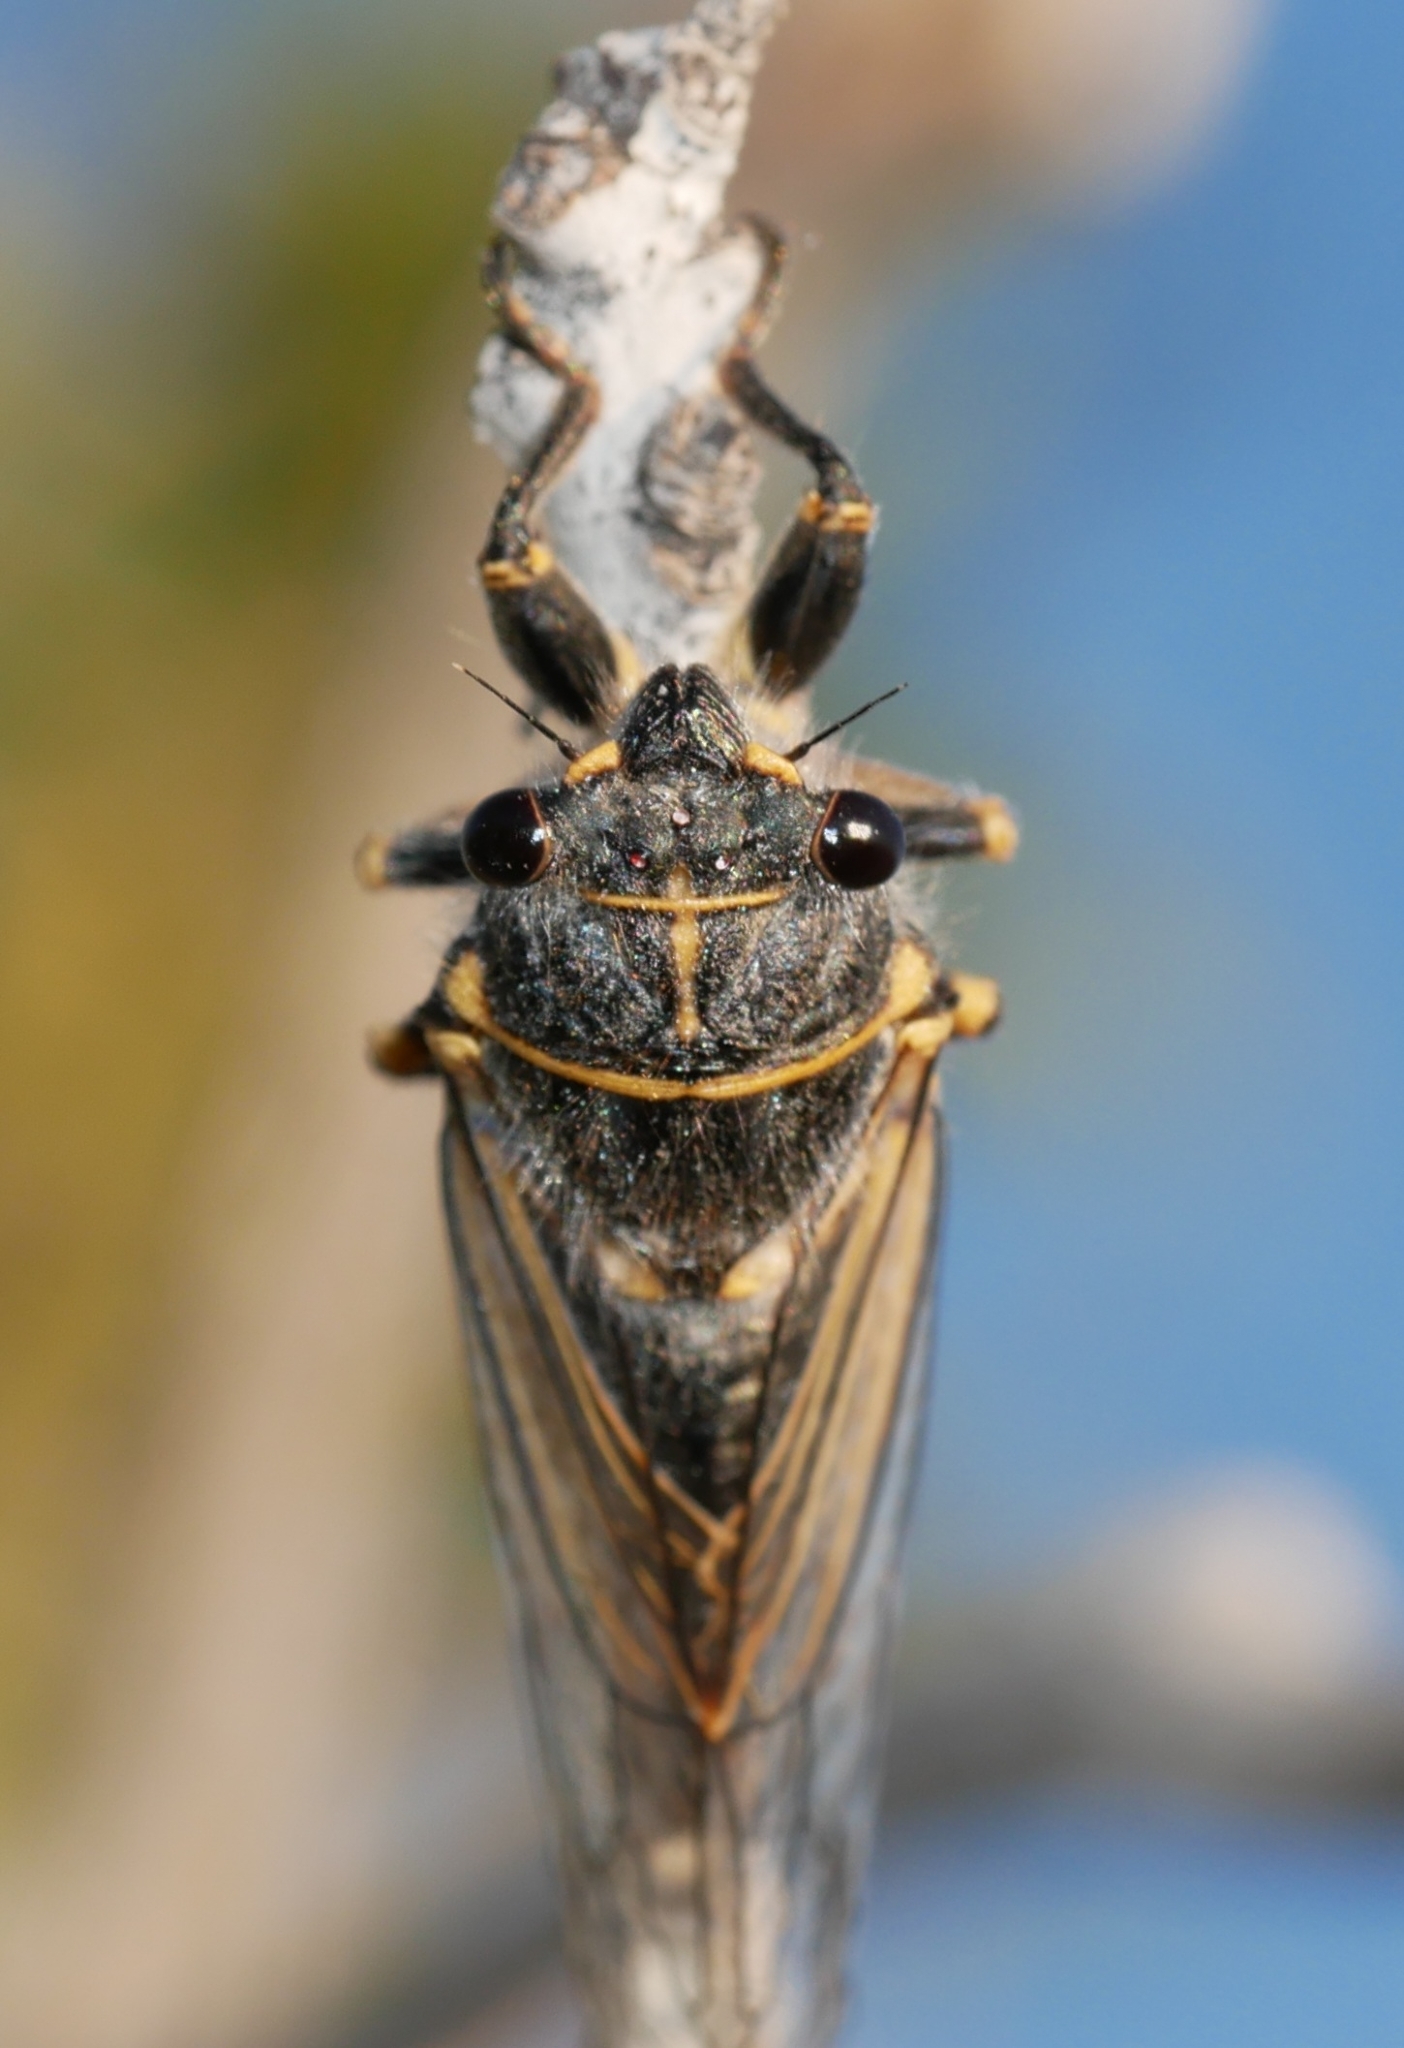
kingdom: Animalia
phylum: Arthropoda
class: Insecta
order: Hemiptera
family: Cicadidae
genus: Platypedia
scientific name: Platypedia putnami
